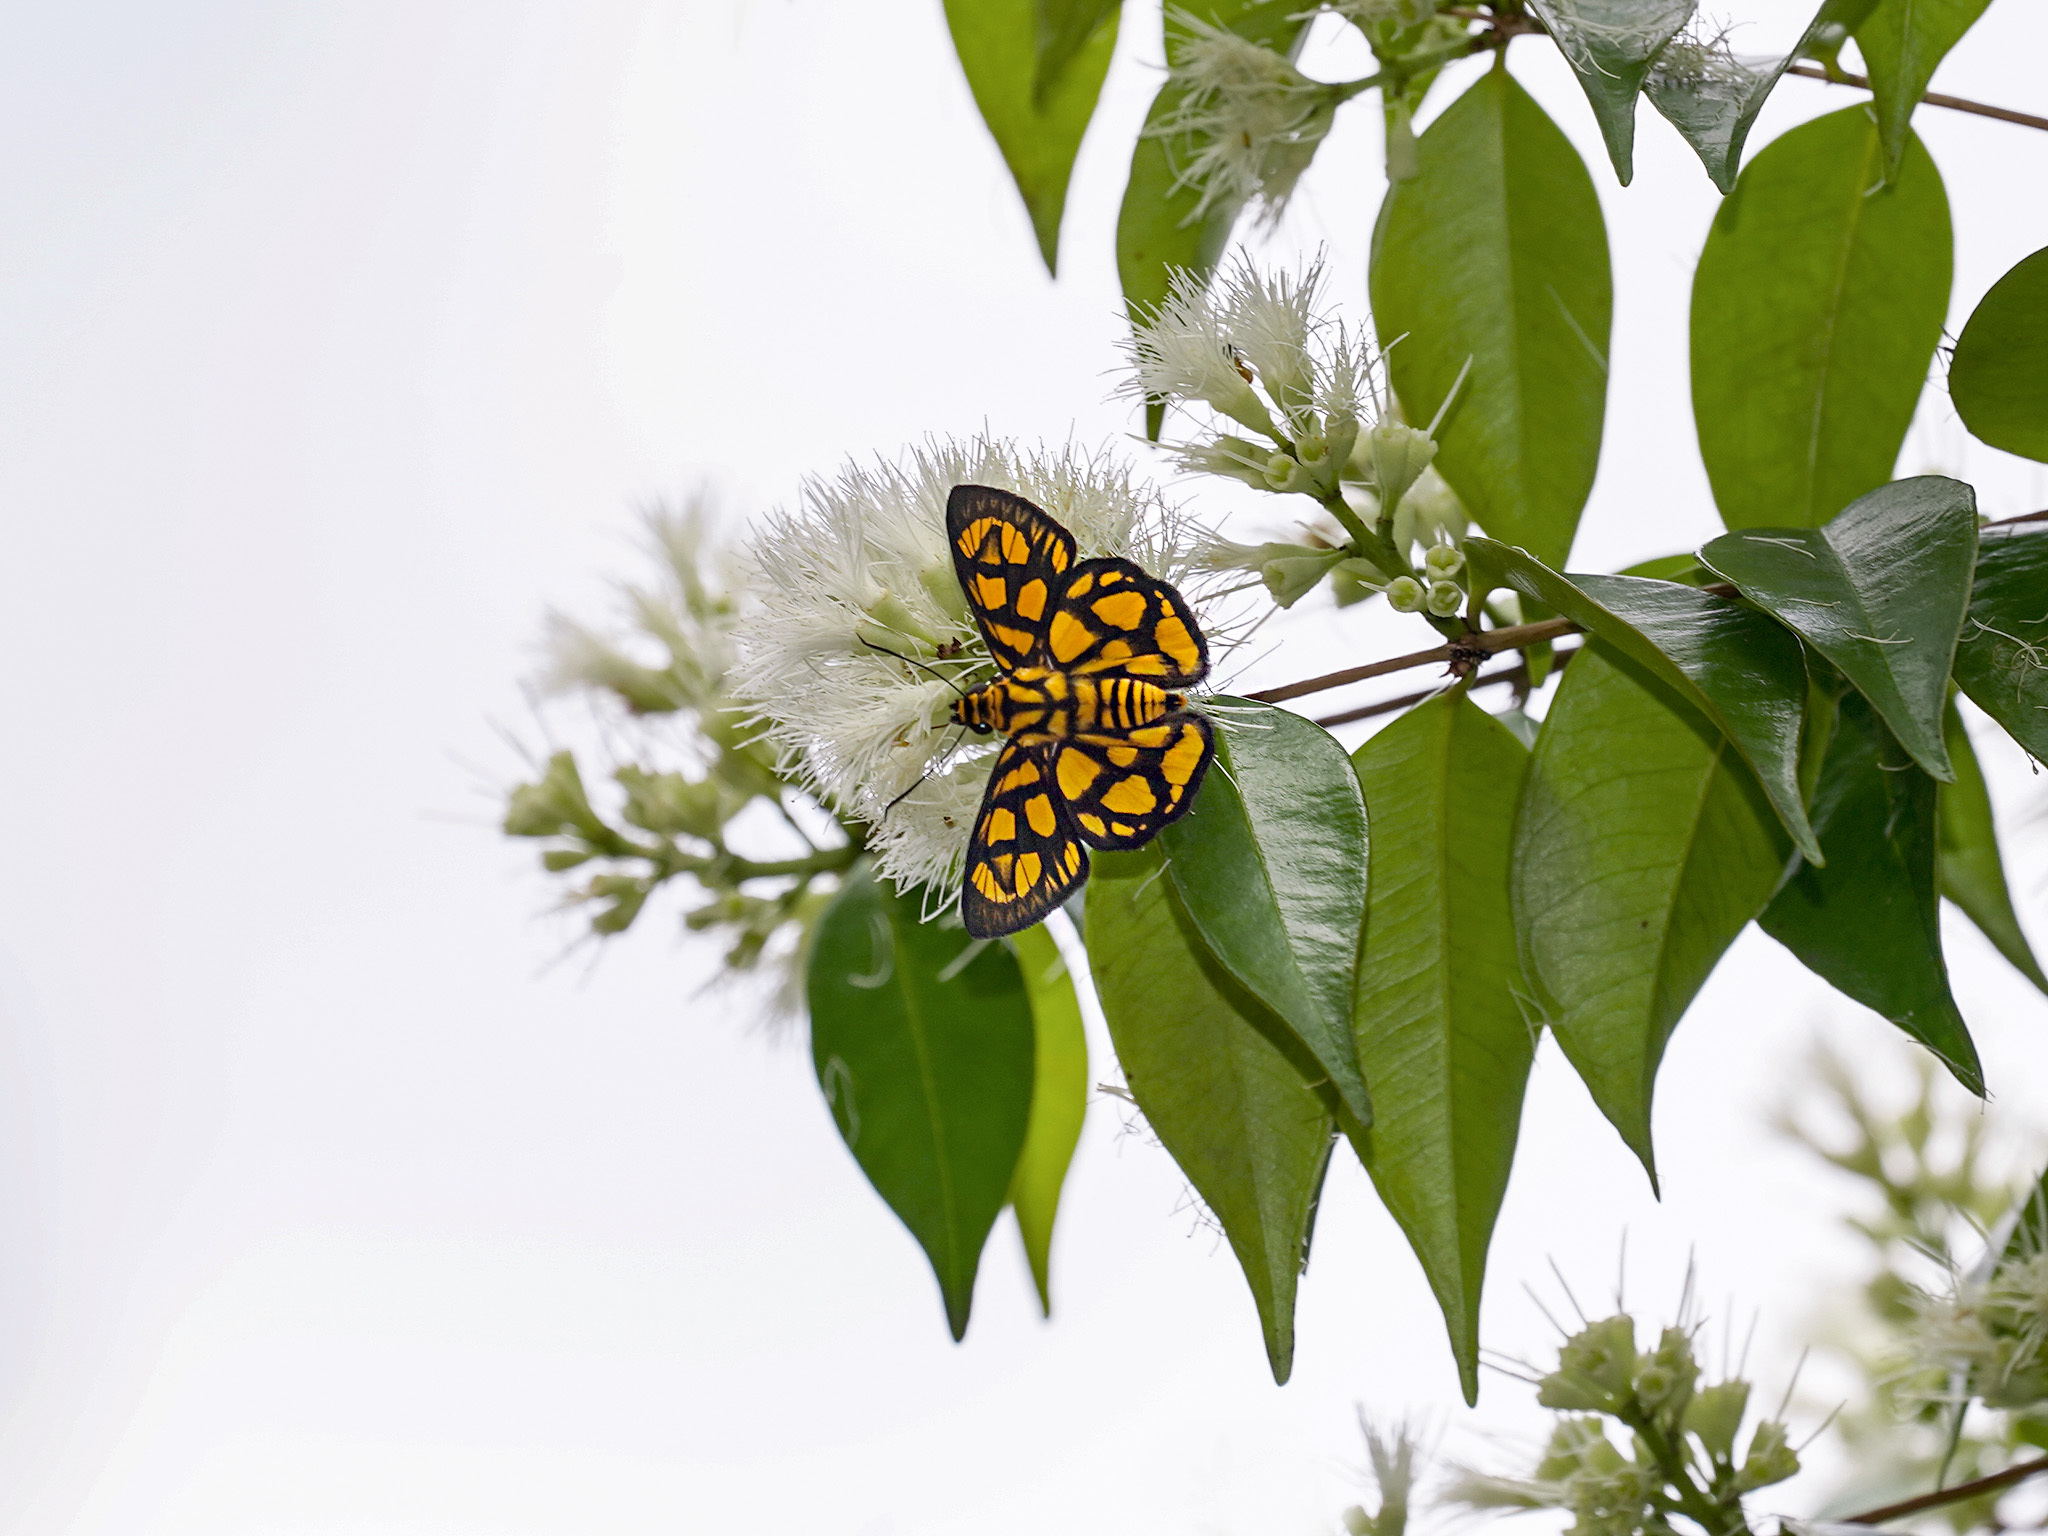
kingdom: Animalia
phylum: Arthropoda
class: Insecta
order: Lepidoptera
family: Hesperiidae
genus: Odina
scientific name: Odina hieroglyphica
